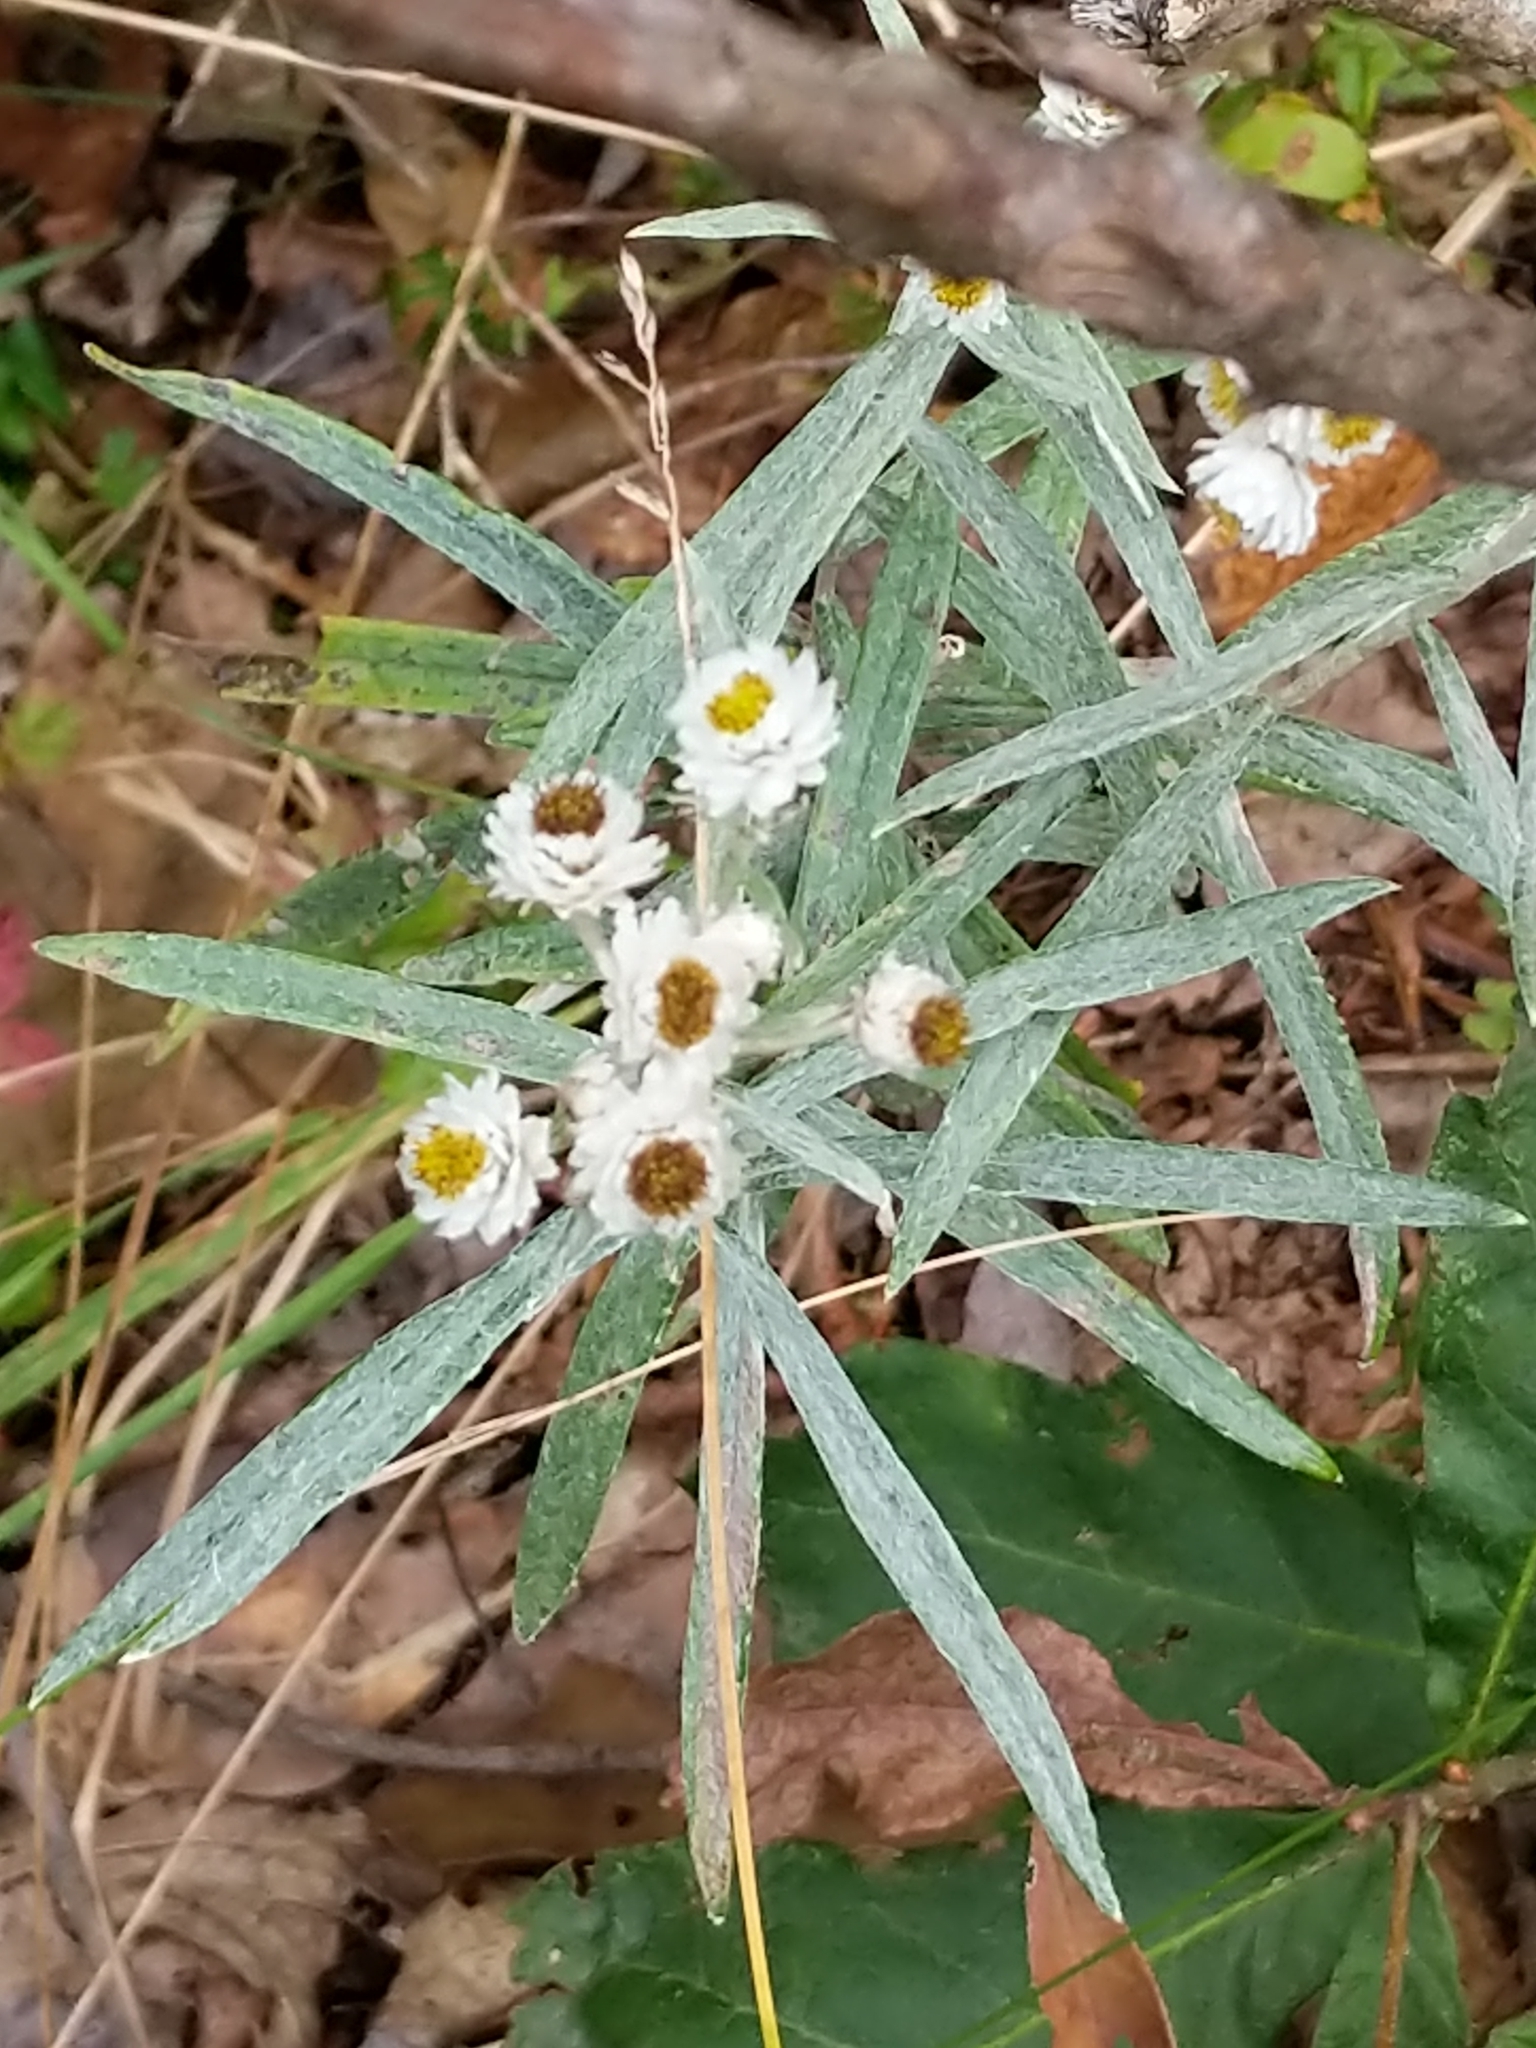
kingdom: Plantae
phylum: Tracheophyta
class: Magnoliopsida
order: Asterales
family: Asteraceae
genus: Anaphalis
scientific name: Anaphalis margaritacea
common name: Pearly everlasting
